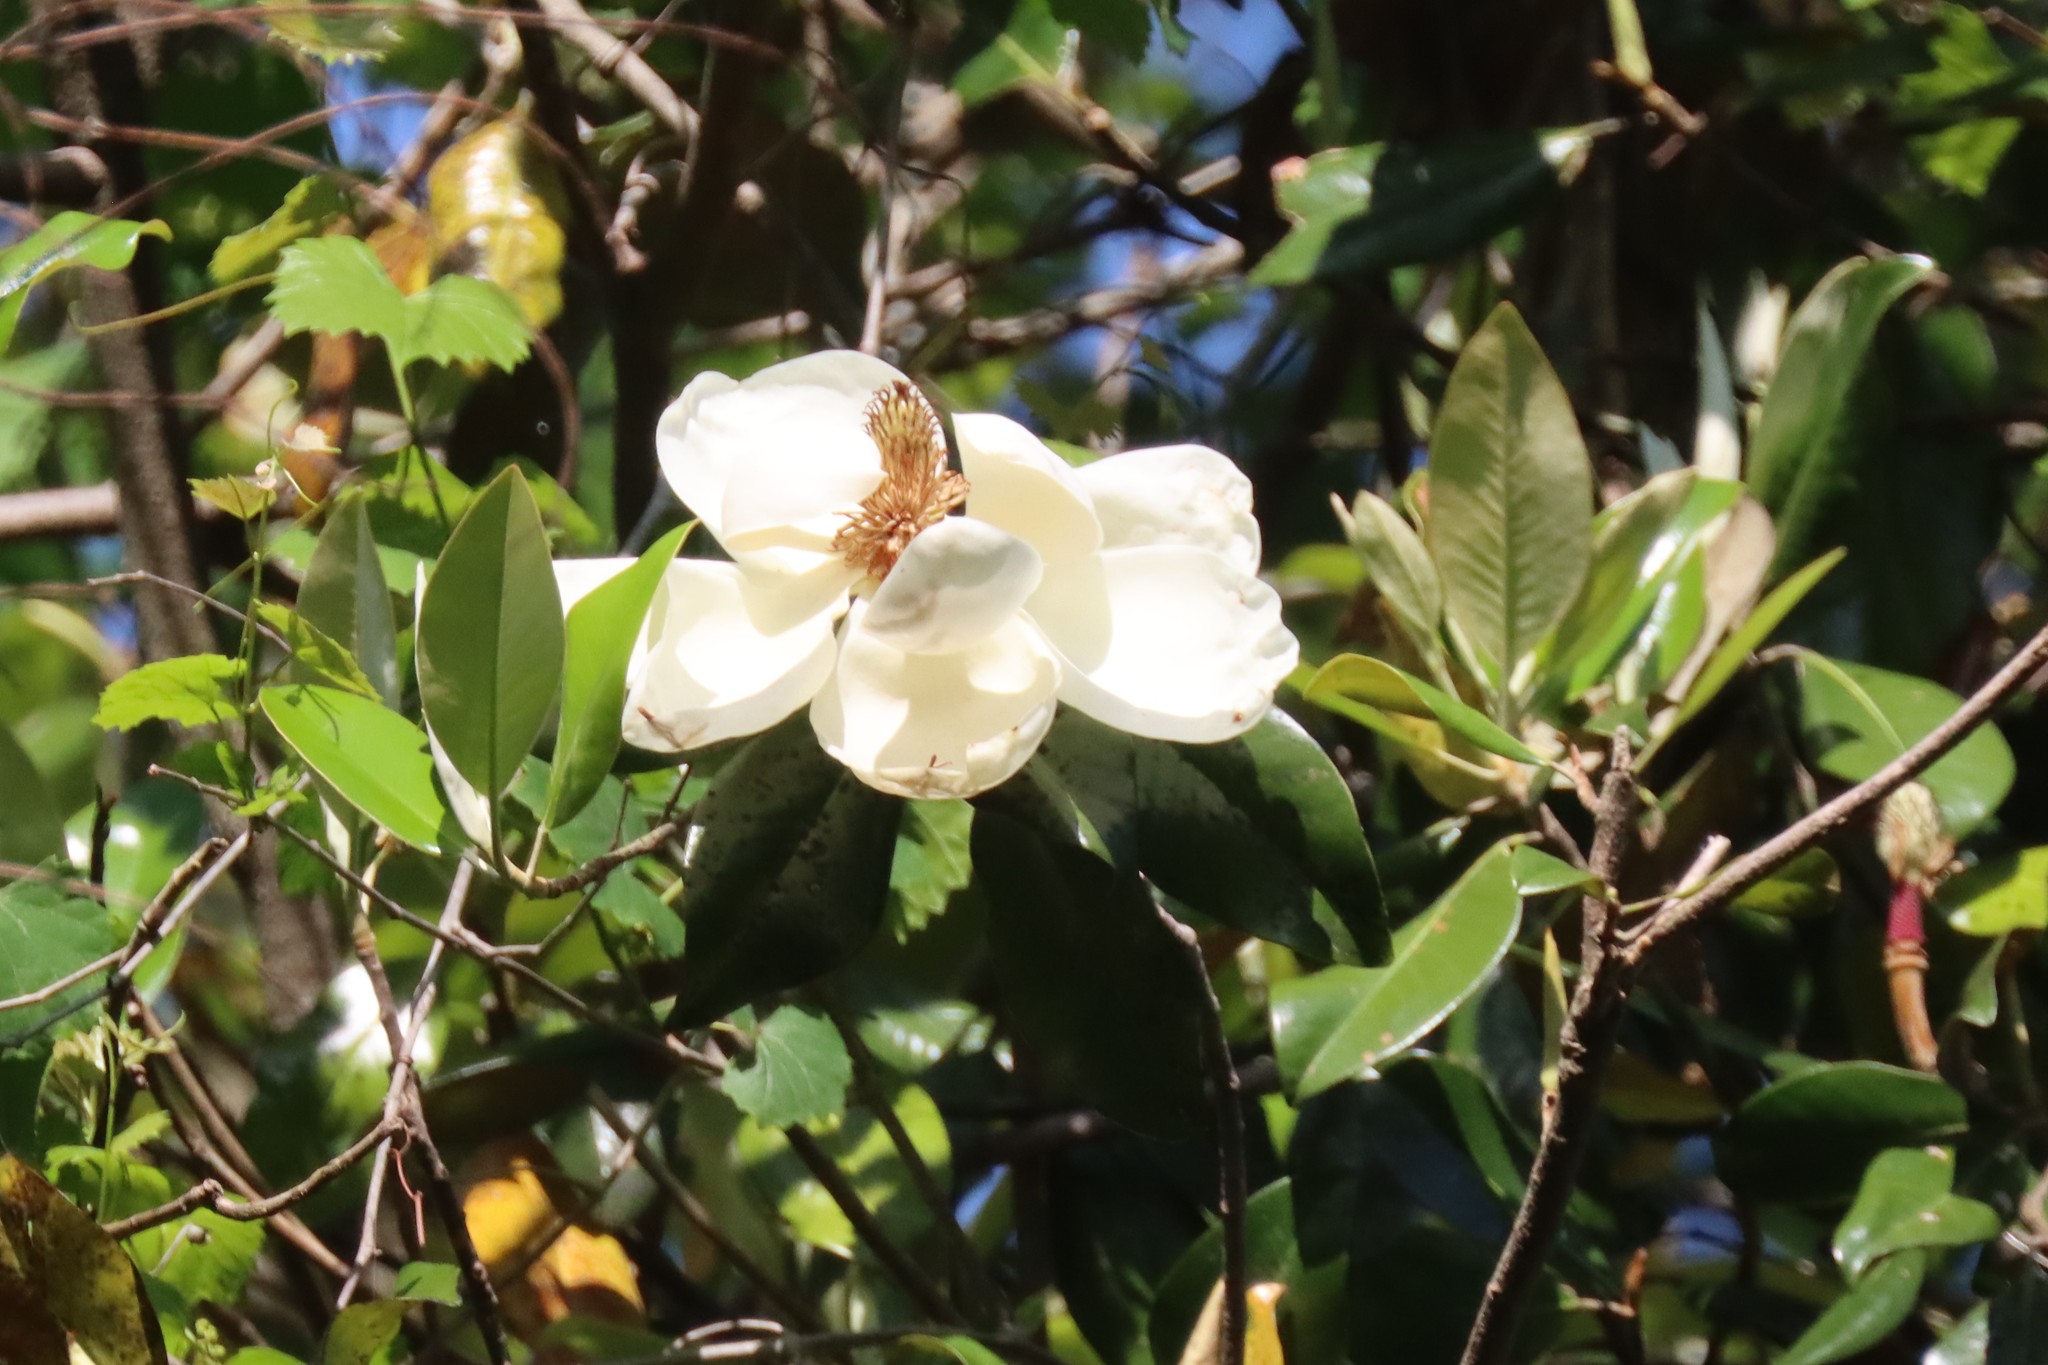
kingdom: Plantae
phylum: Tracheophyta
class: Magnoliopsida
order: Magnoliales
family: Magnoliaceae
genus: Magnolia
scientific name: Magnolia grandiflora
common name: Southern magnolia
